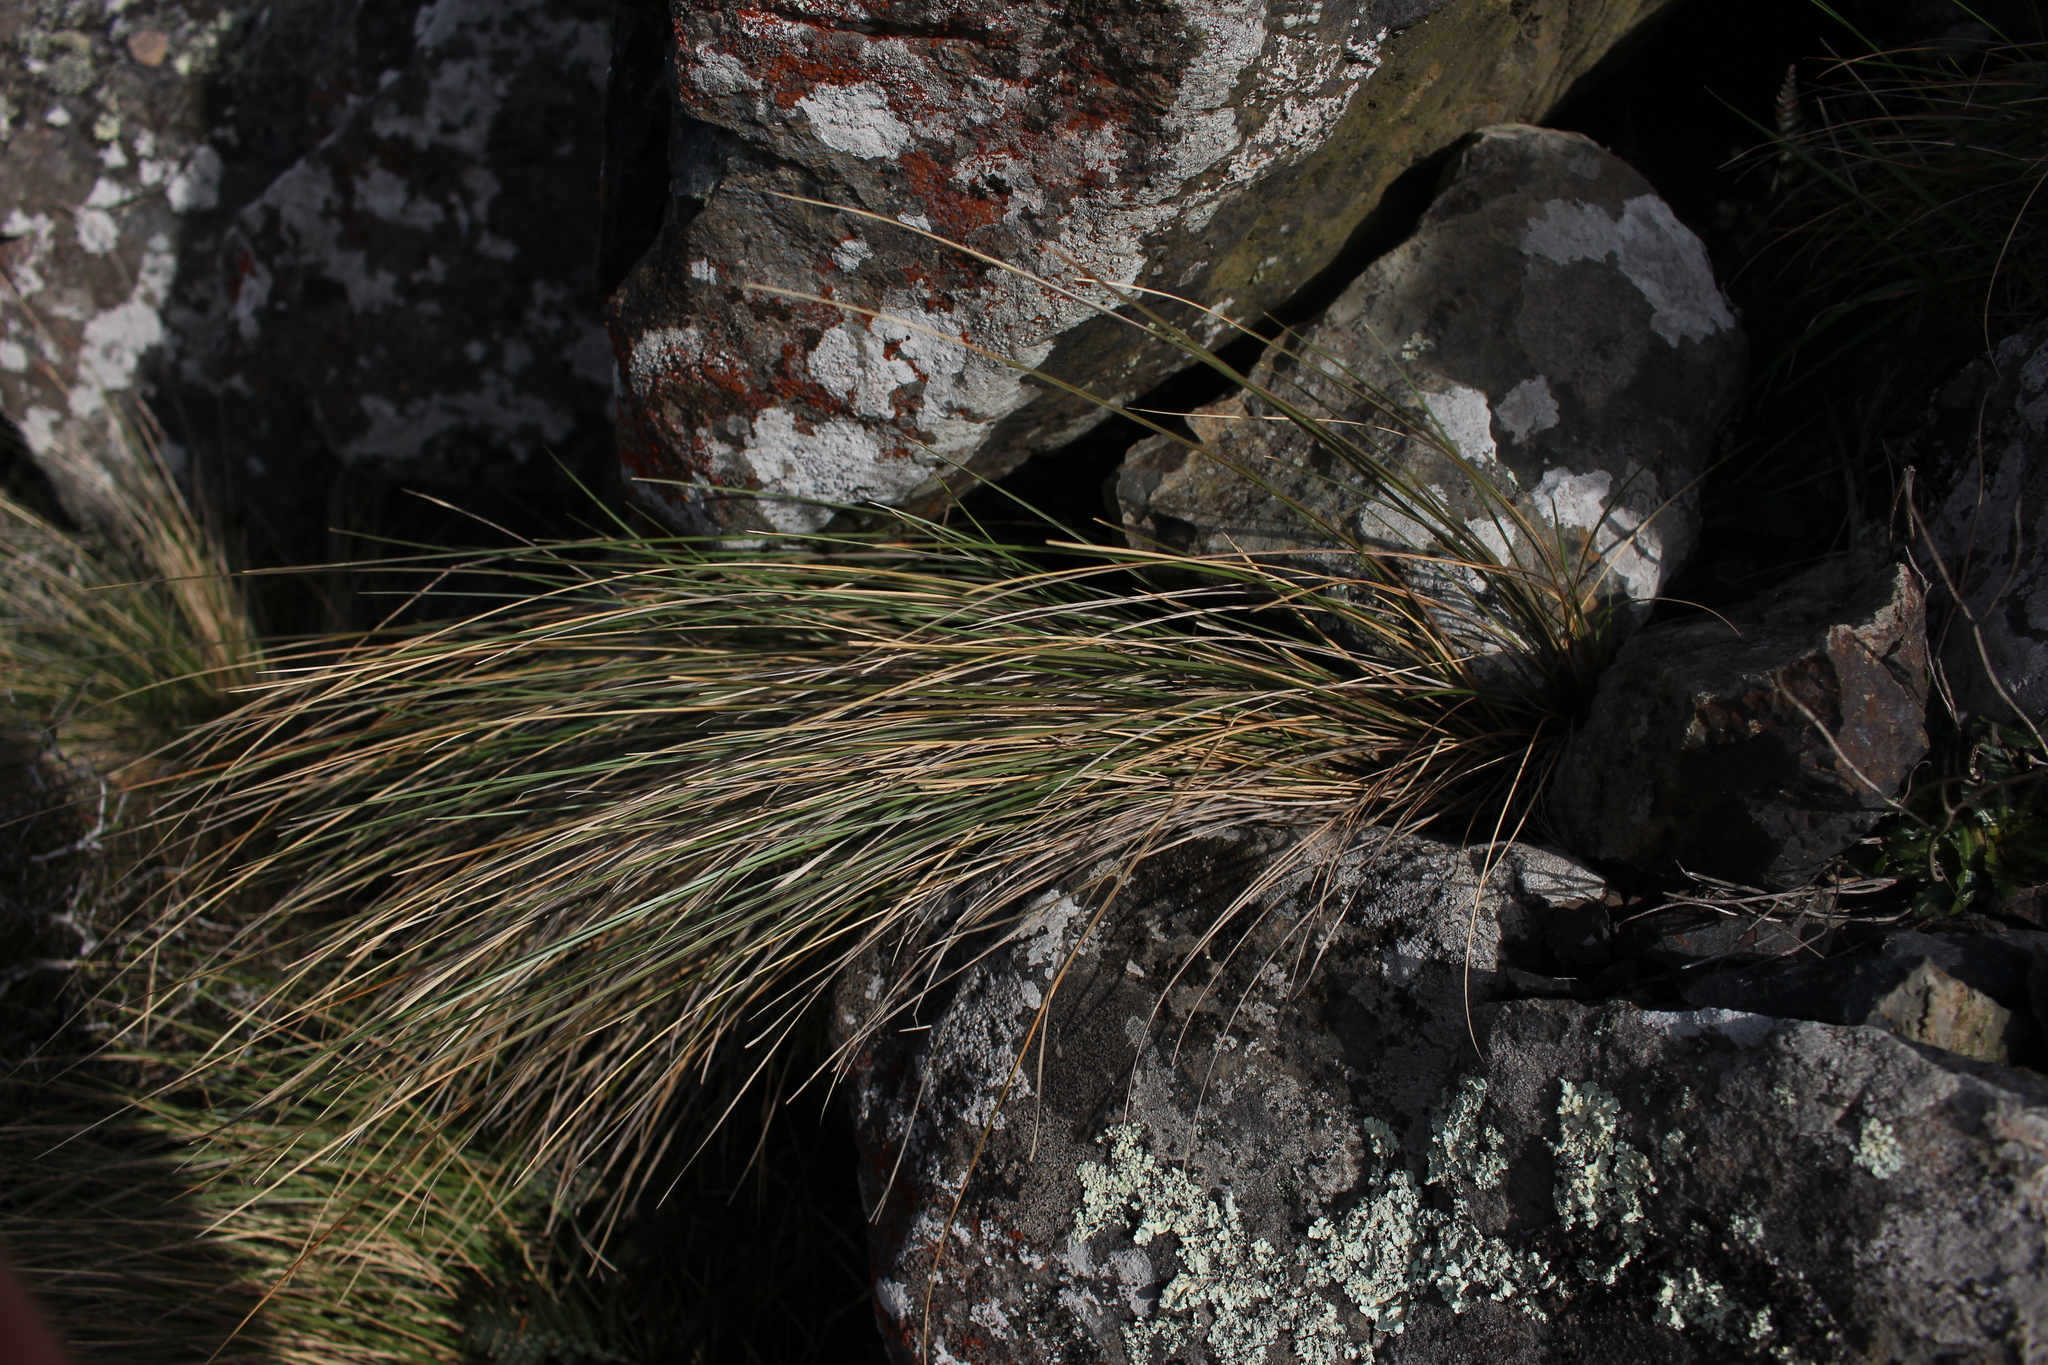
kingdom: Plantae
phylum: Tracheophyta
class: Liliopsida
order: Poales
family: Poaceae
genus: Poa
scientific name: Poa cita
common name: Silver tussock
